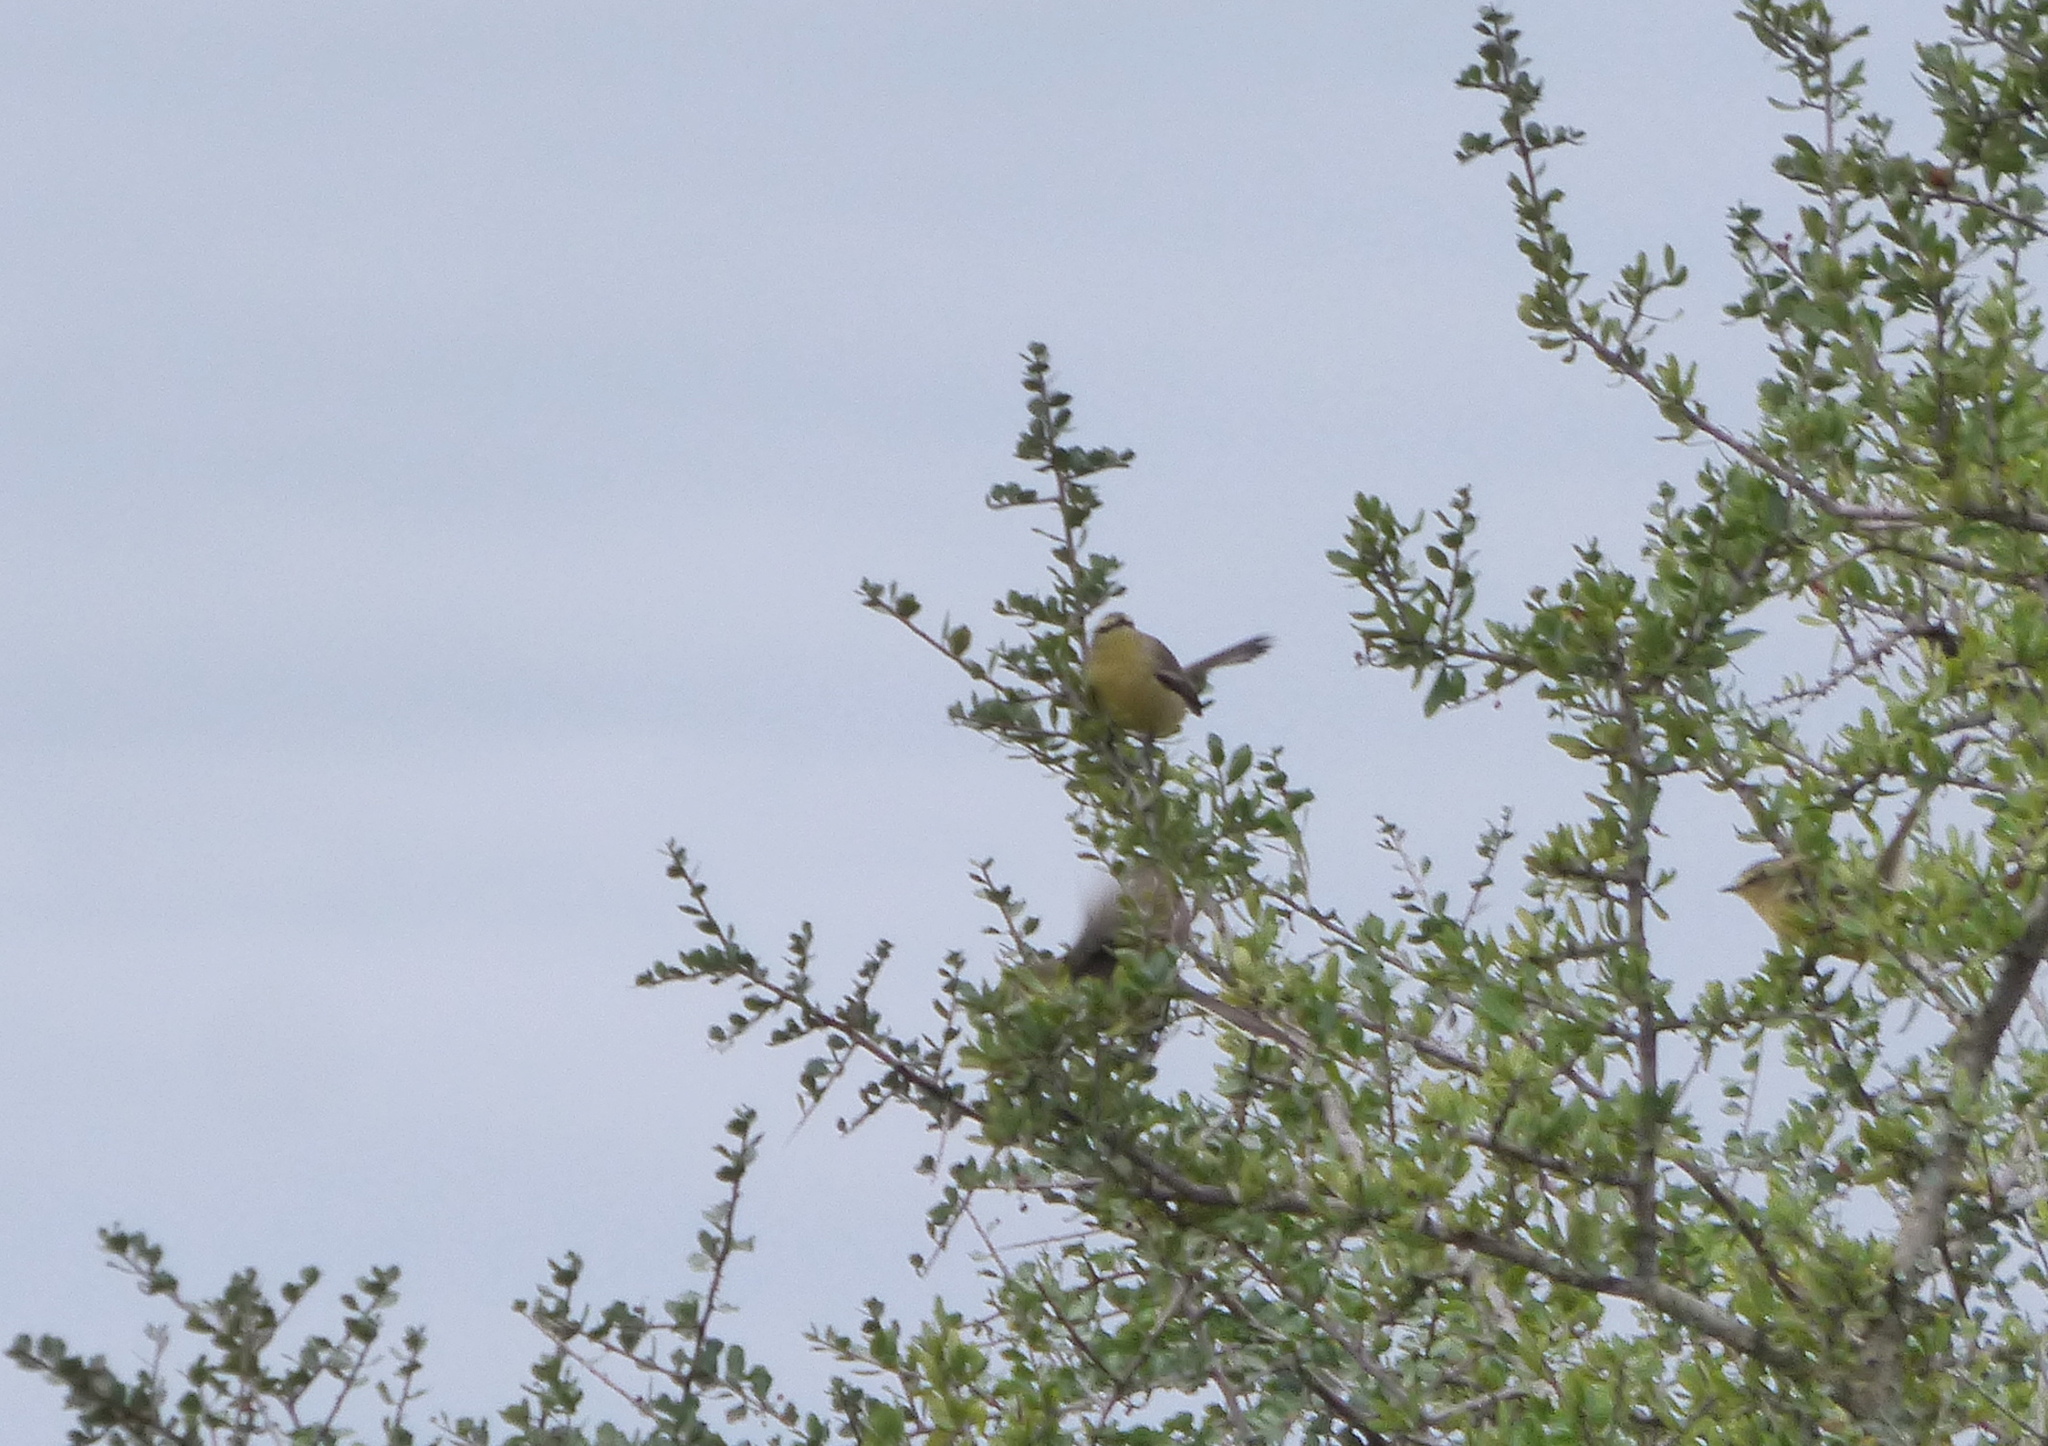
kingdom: Animalia
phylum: Chordata
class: Aves
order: Passeriformes
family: Tyrannidae
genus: Stigmatura
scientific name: Stigmatura budytoides
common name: Greater wagtail-tyrant
